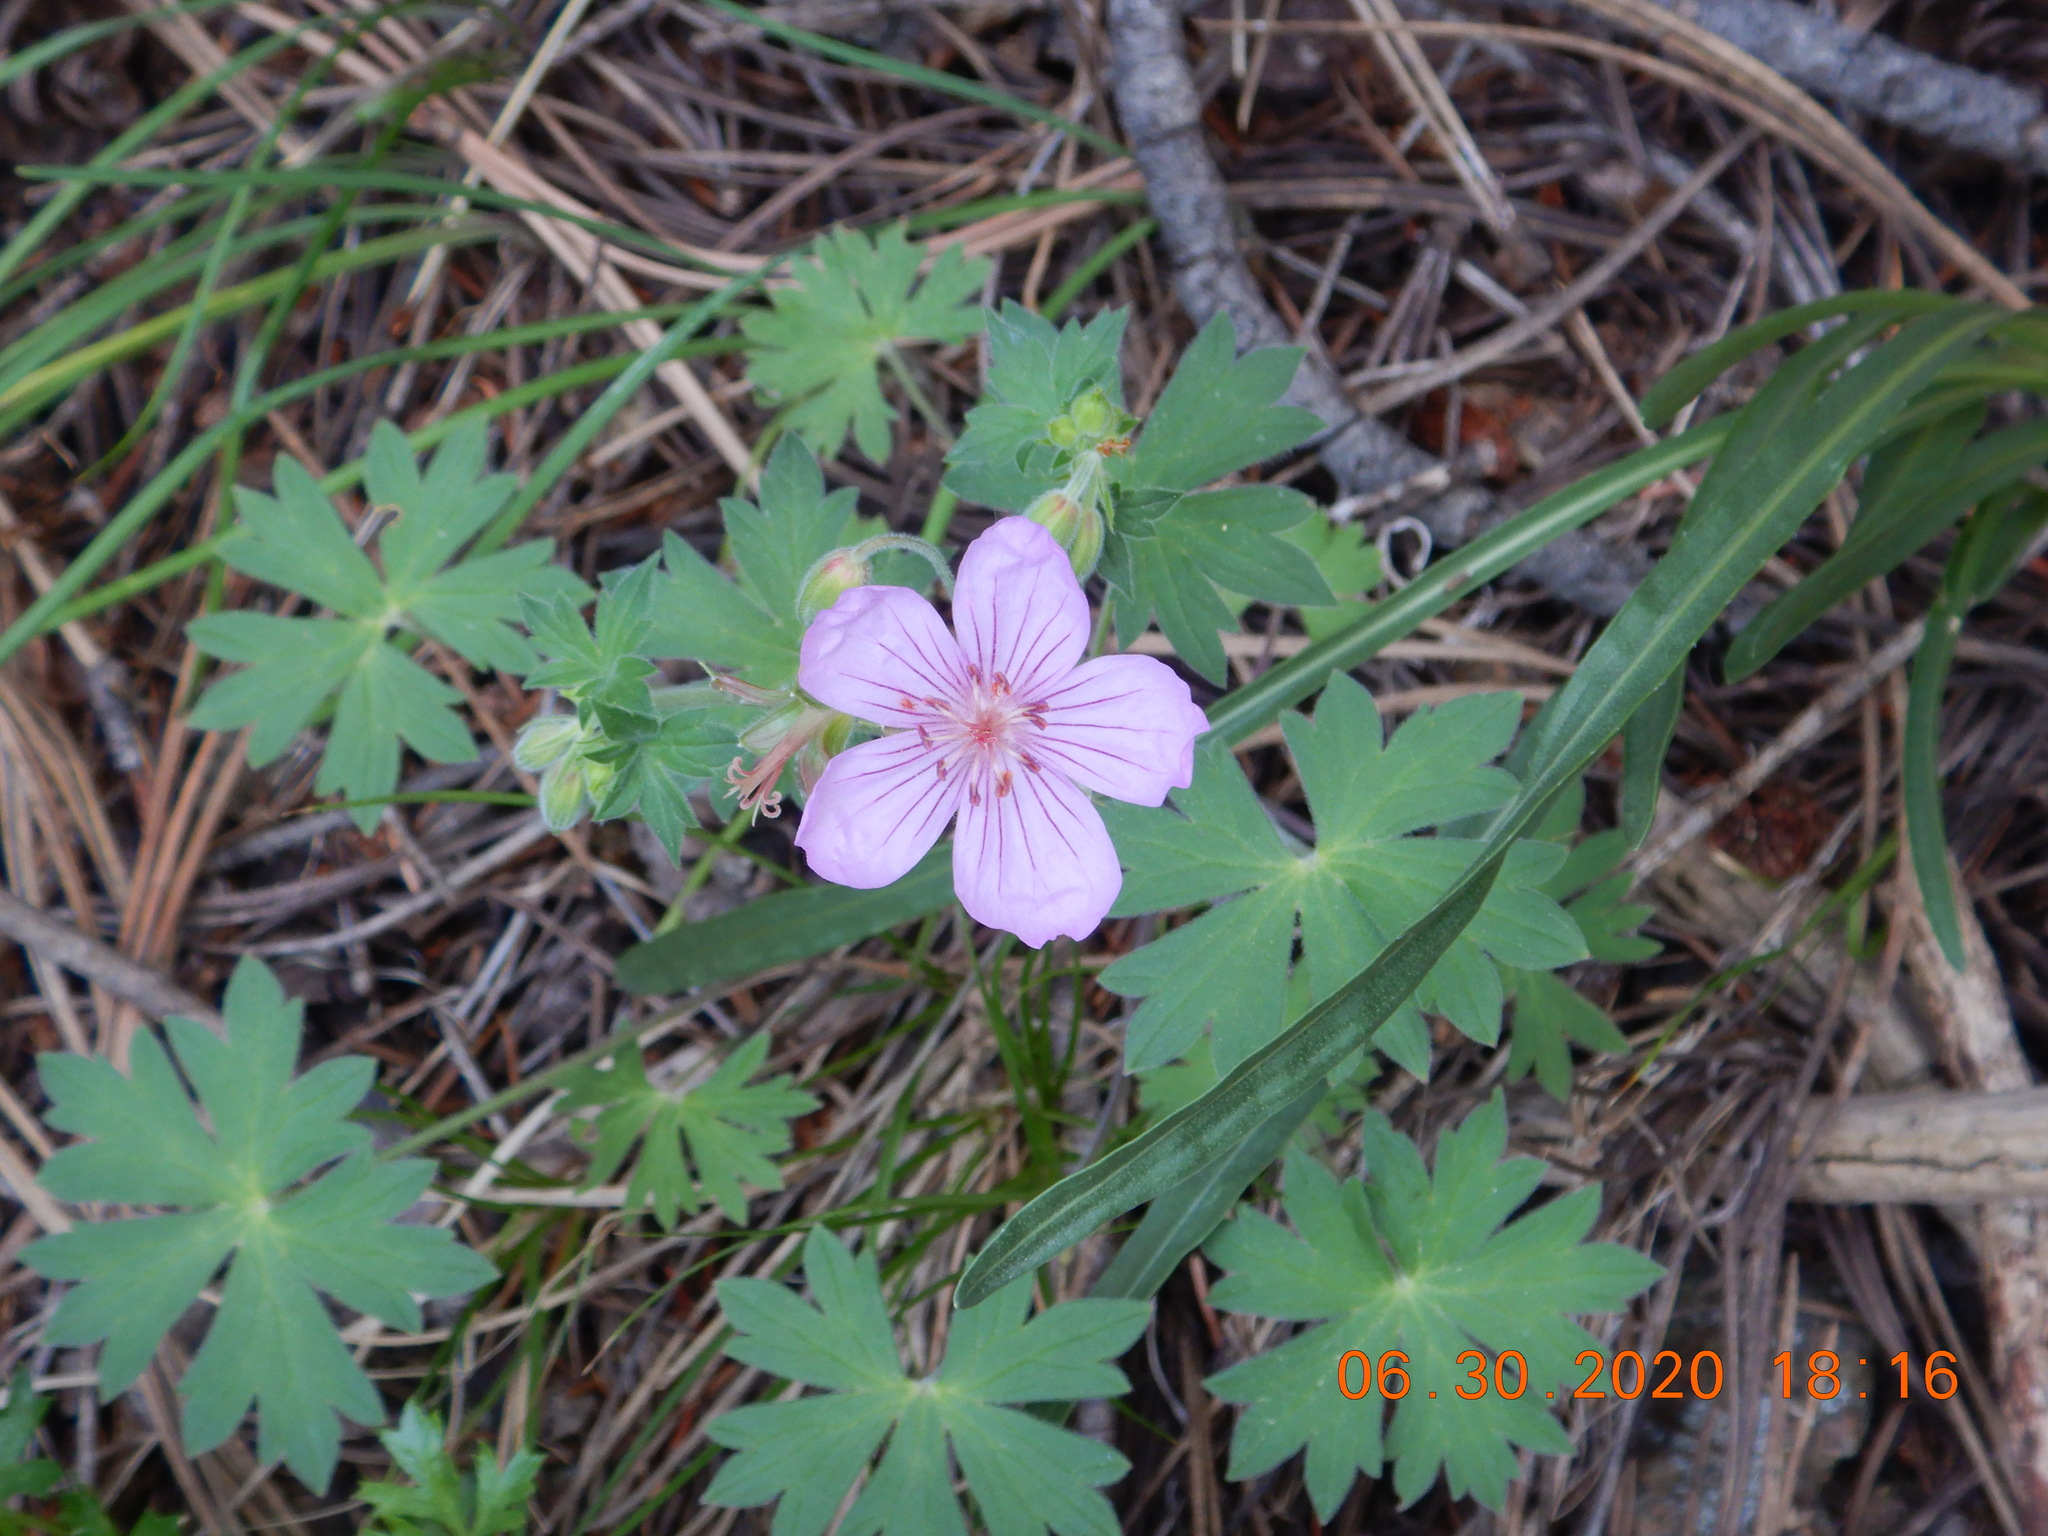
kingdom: Plantae
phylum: Tracheophyta
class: Magnoliopsida
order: Geraniales
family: Geraniaceae
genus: Geranium
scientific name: Geranium caespitosum
